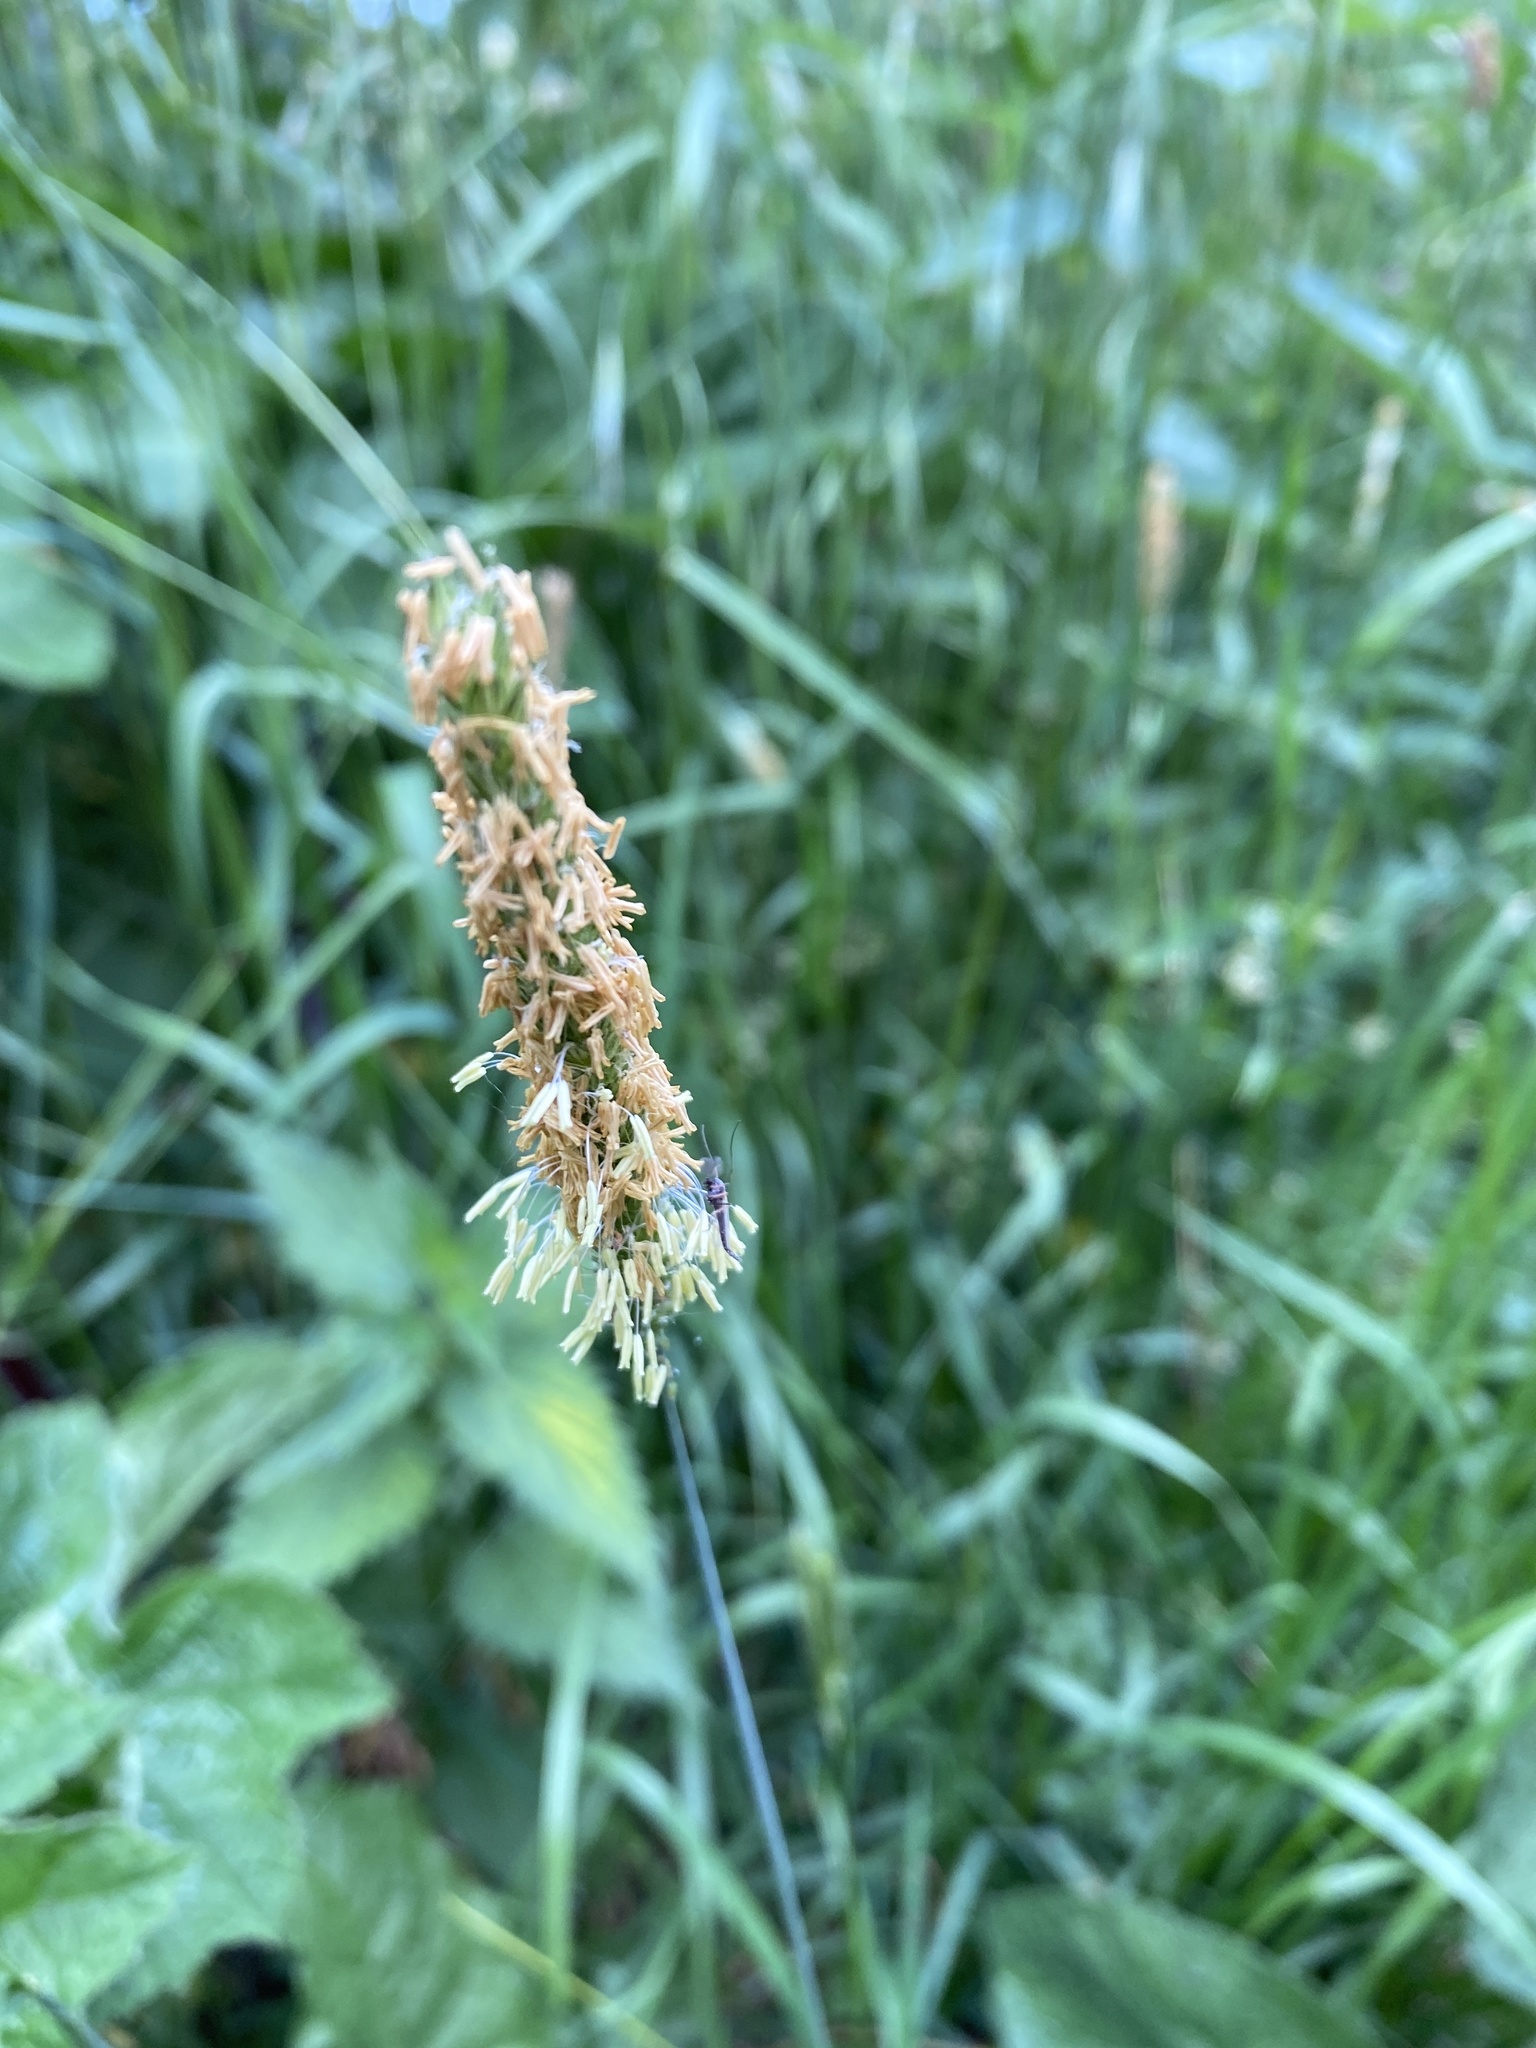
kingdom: Plantae
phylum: Tracheophyta
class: Liliopsida
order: Poales
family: Poaceae
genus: Alopecurus
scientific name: Alopecurus pratensis
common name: Meadow foxtail
